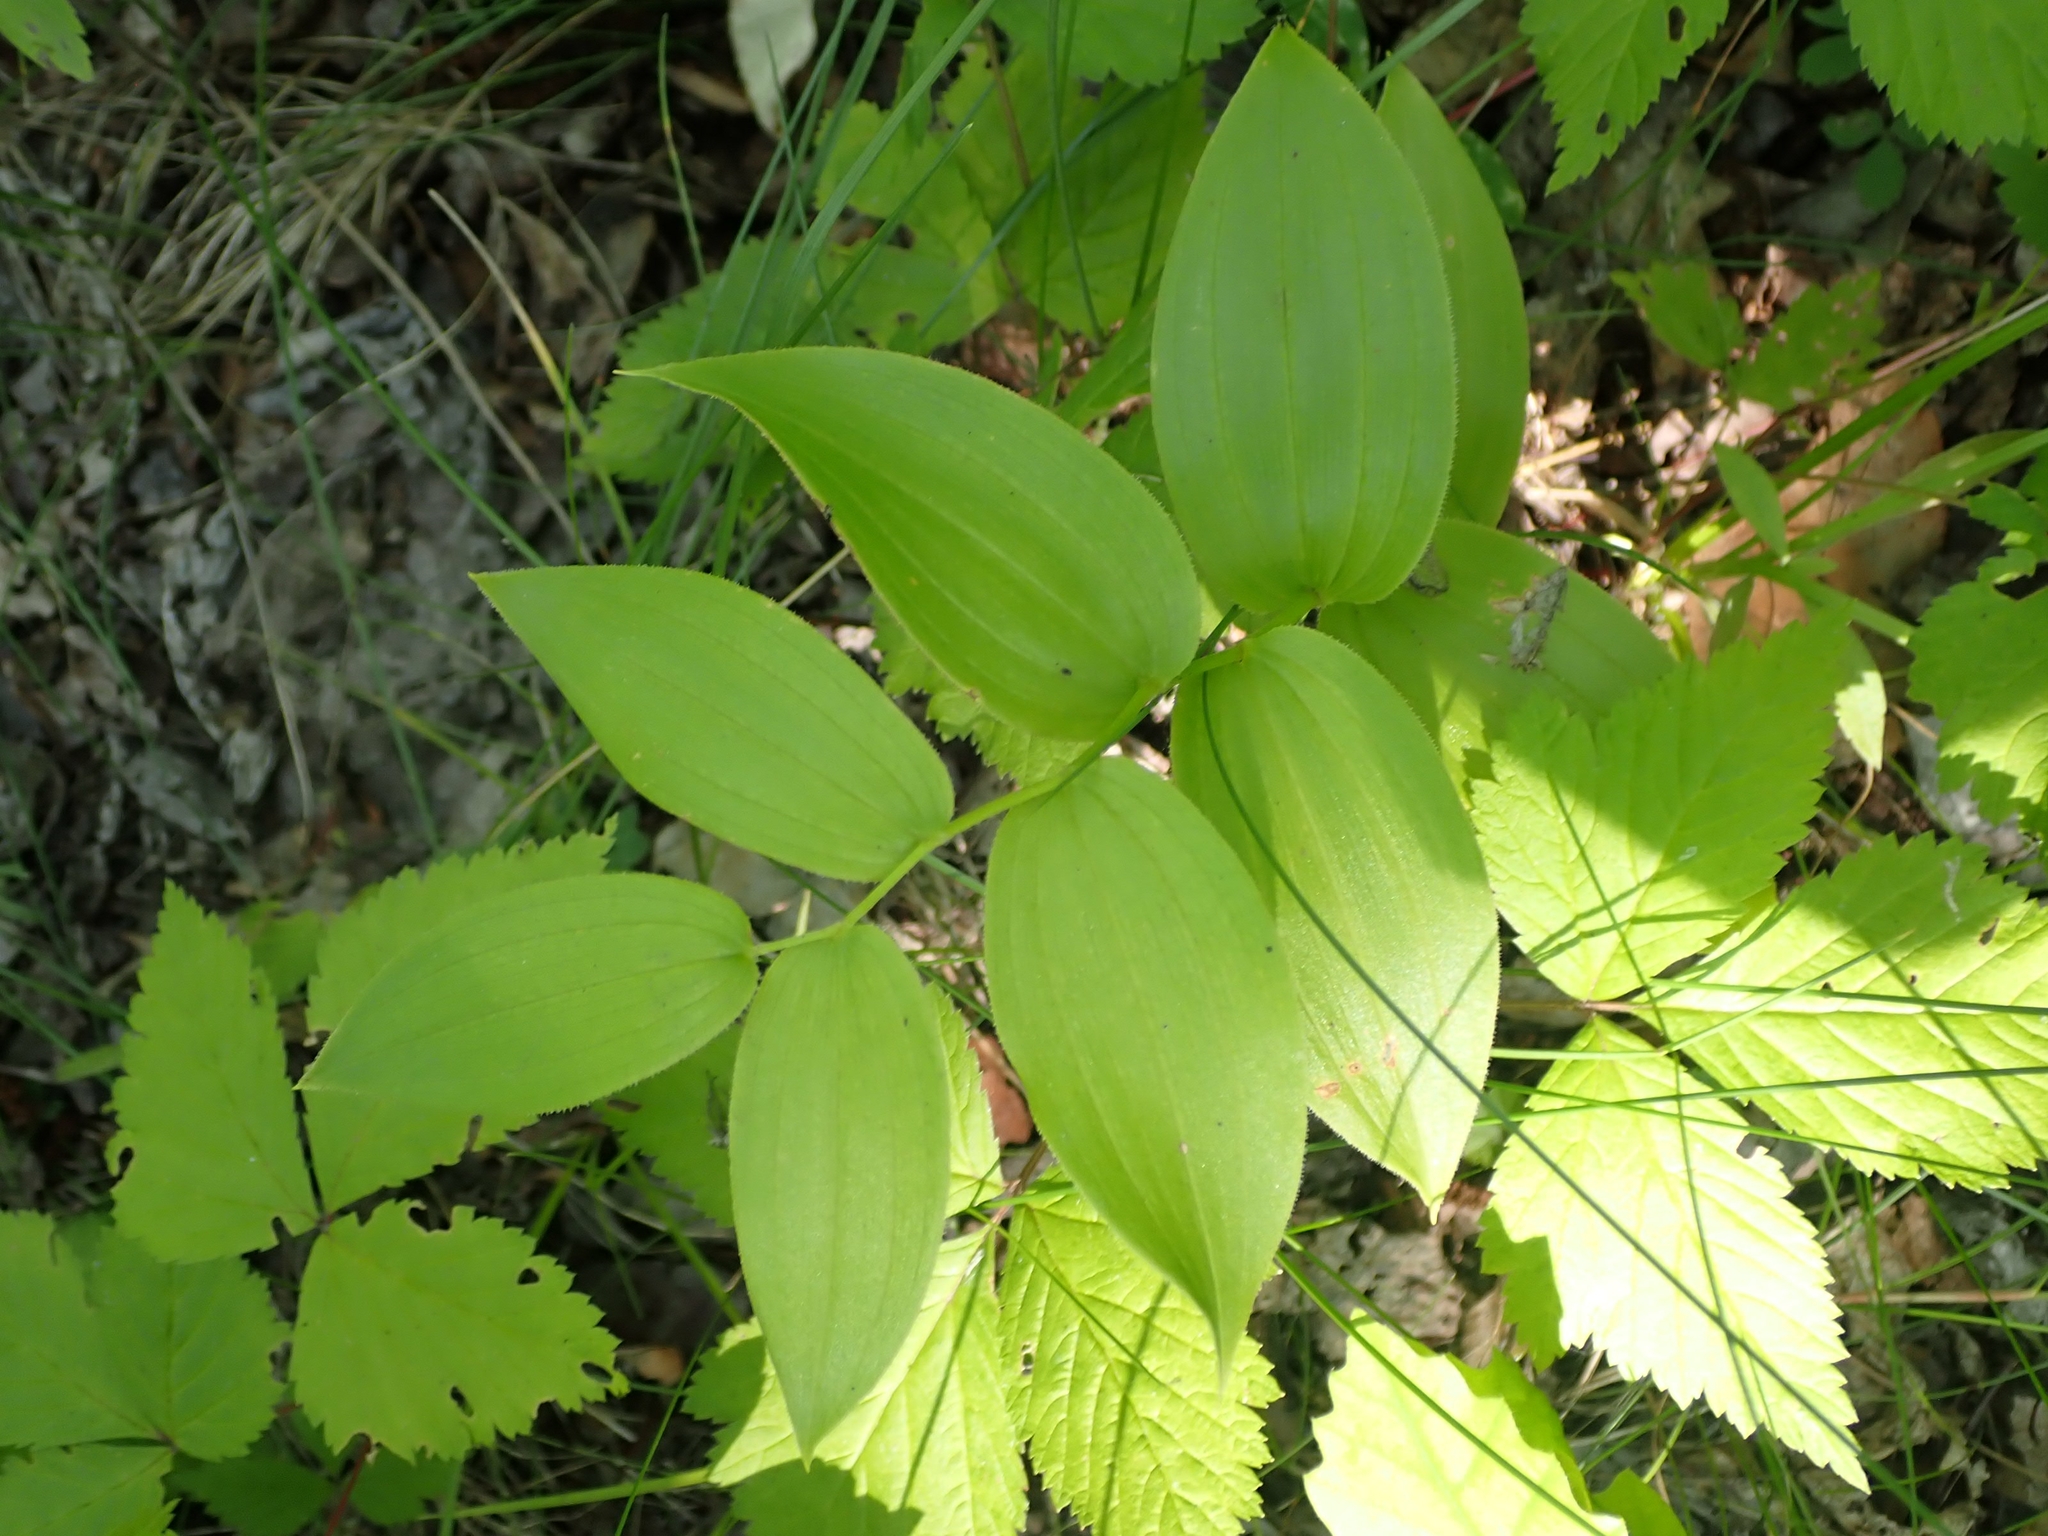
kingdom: Plantae
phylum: Tracheophyta
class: Liliopsida
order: Liliales
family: Liliaceae
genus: Streptopus
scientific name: Streptopus lanceolatus
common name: Rose mandarin
